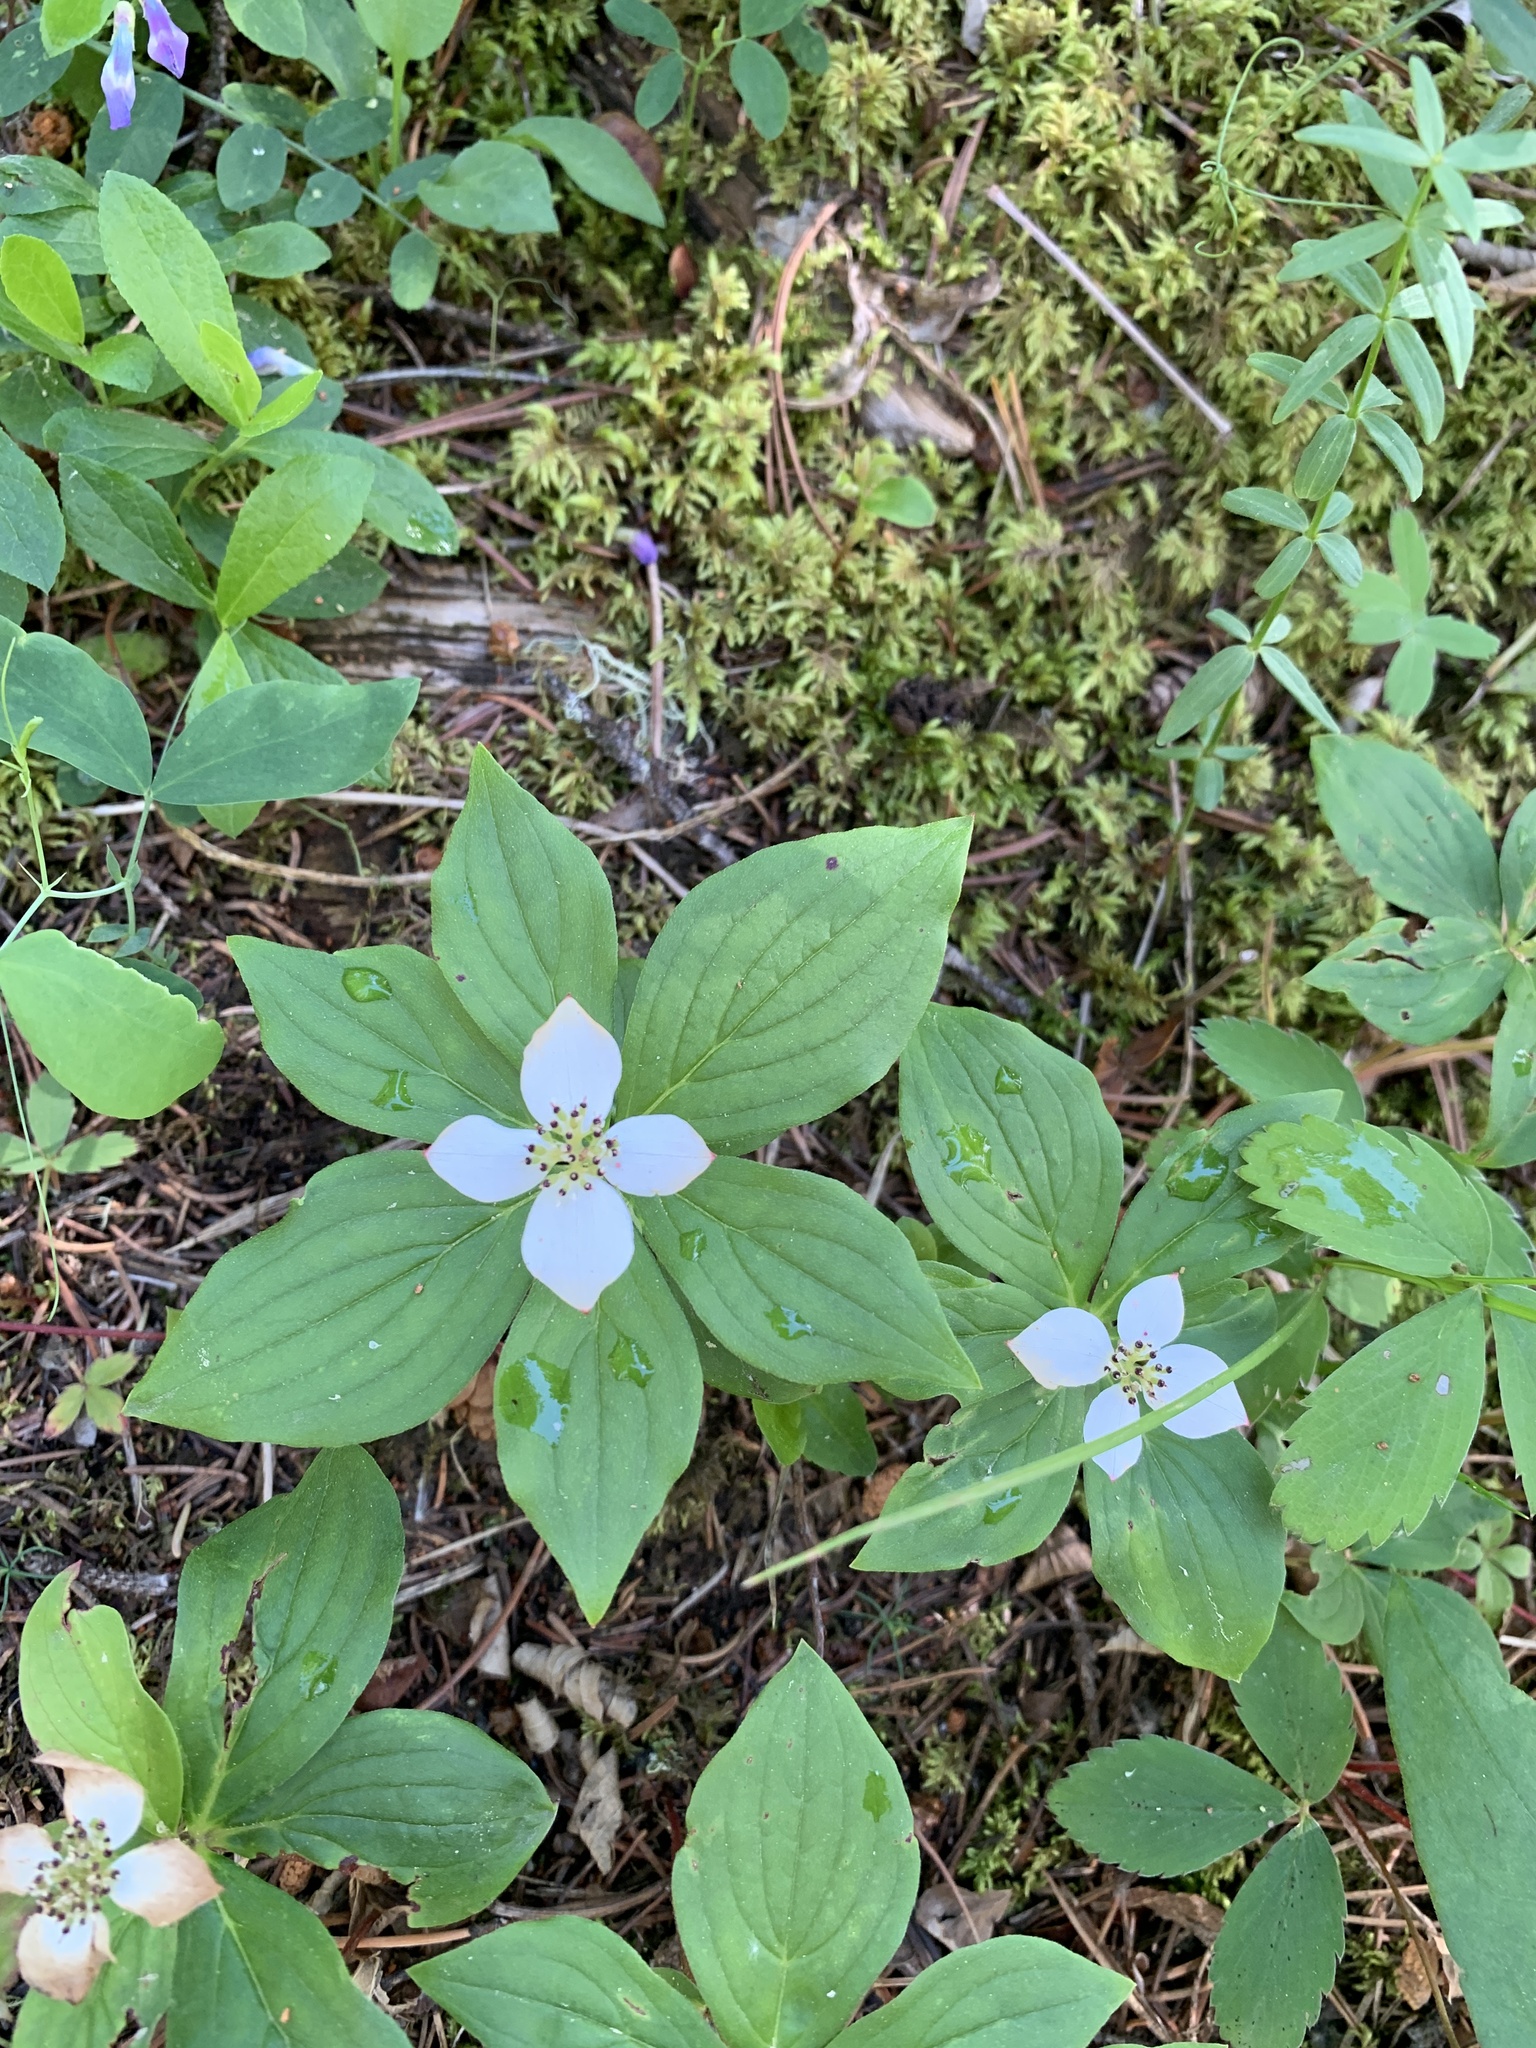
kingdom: Plantae
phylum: Tracheophyta
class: Magnoliopsida
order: Cornales
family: Cornaceae
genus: Cornus
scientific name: Cornus canadensis
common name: Creeping dogwood
